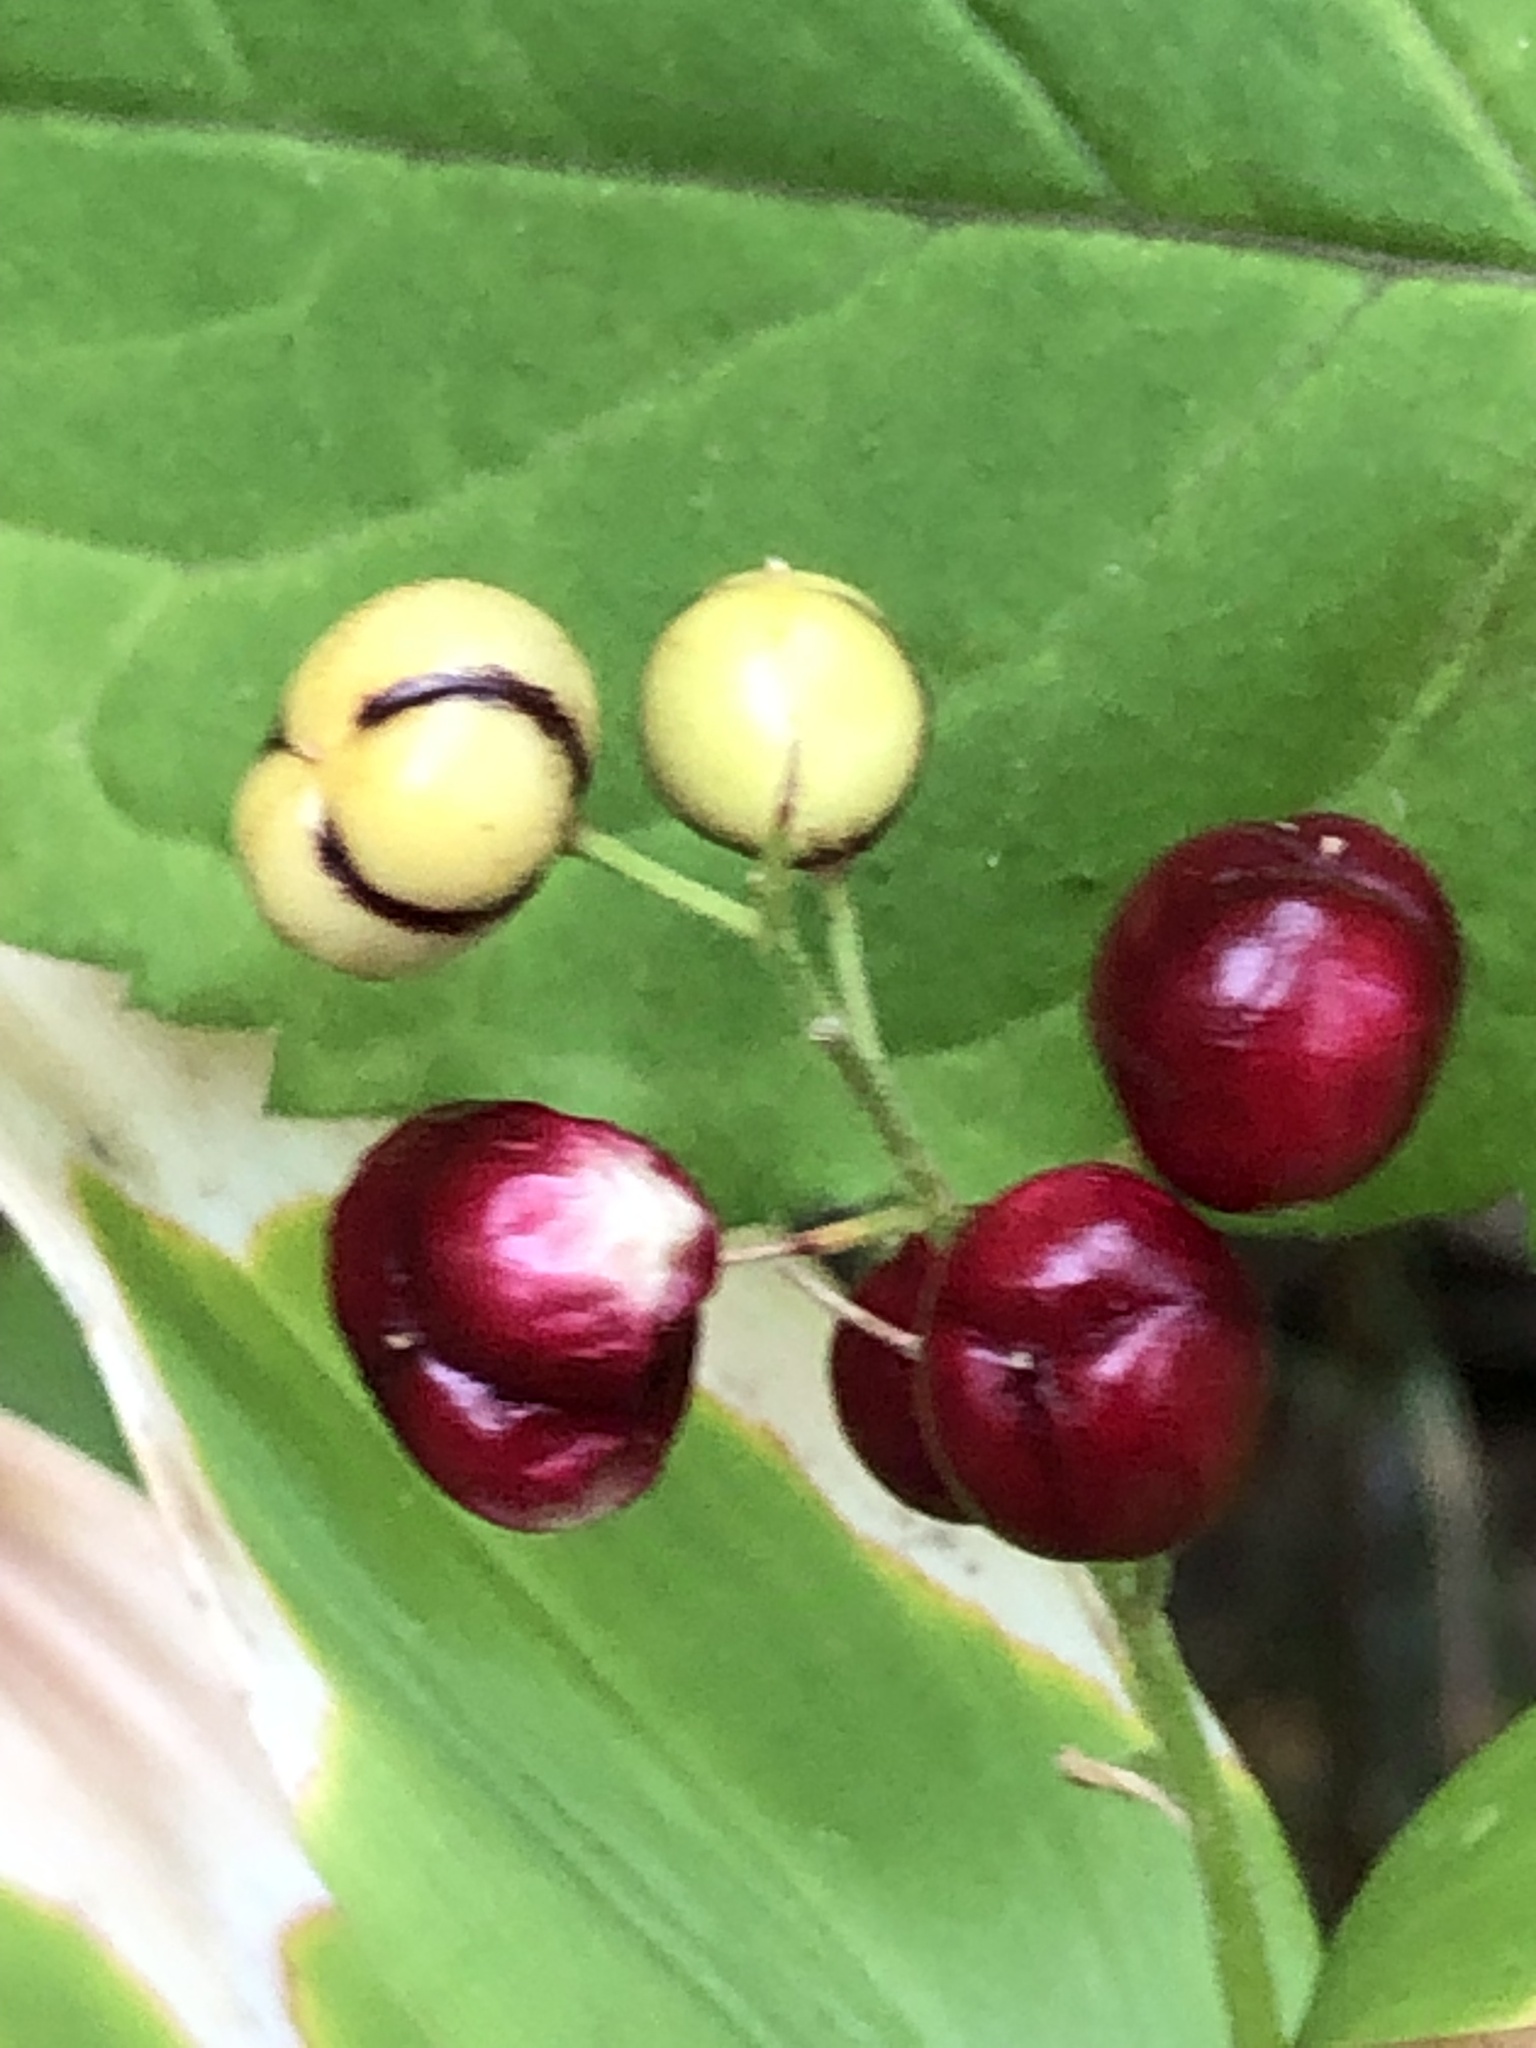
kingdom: Plantae
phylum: Tracheophyta
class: Liliopsida
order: Asparagales
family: Asparagaceae
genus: Maianthemum
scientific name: Maianthemum stellatum
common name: Little false solomon's seal
